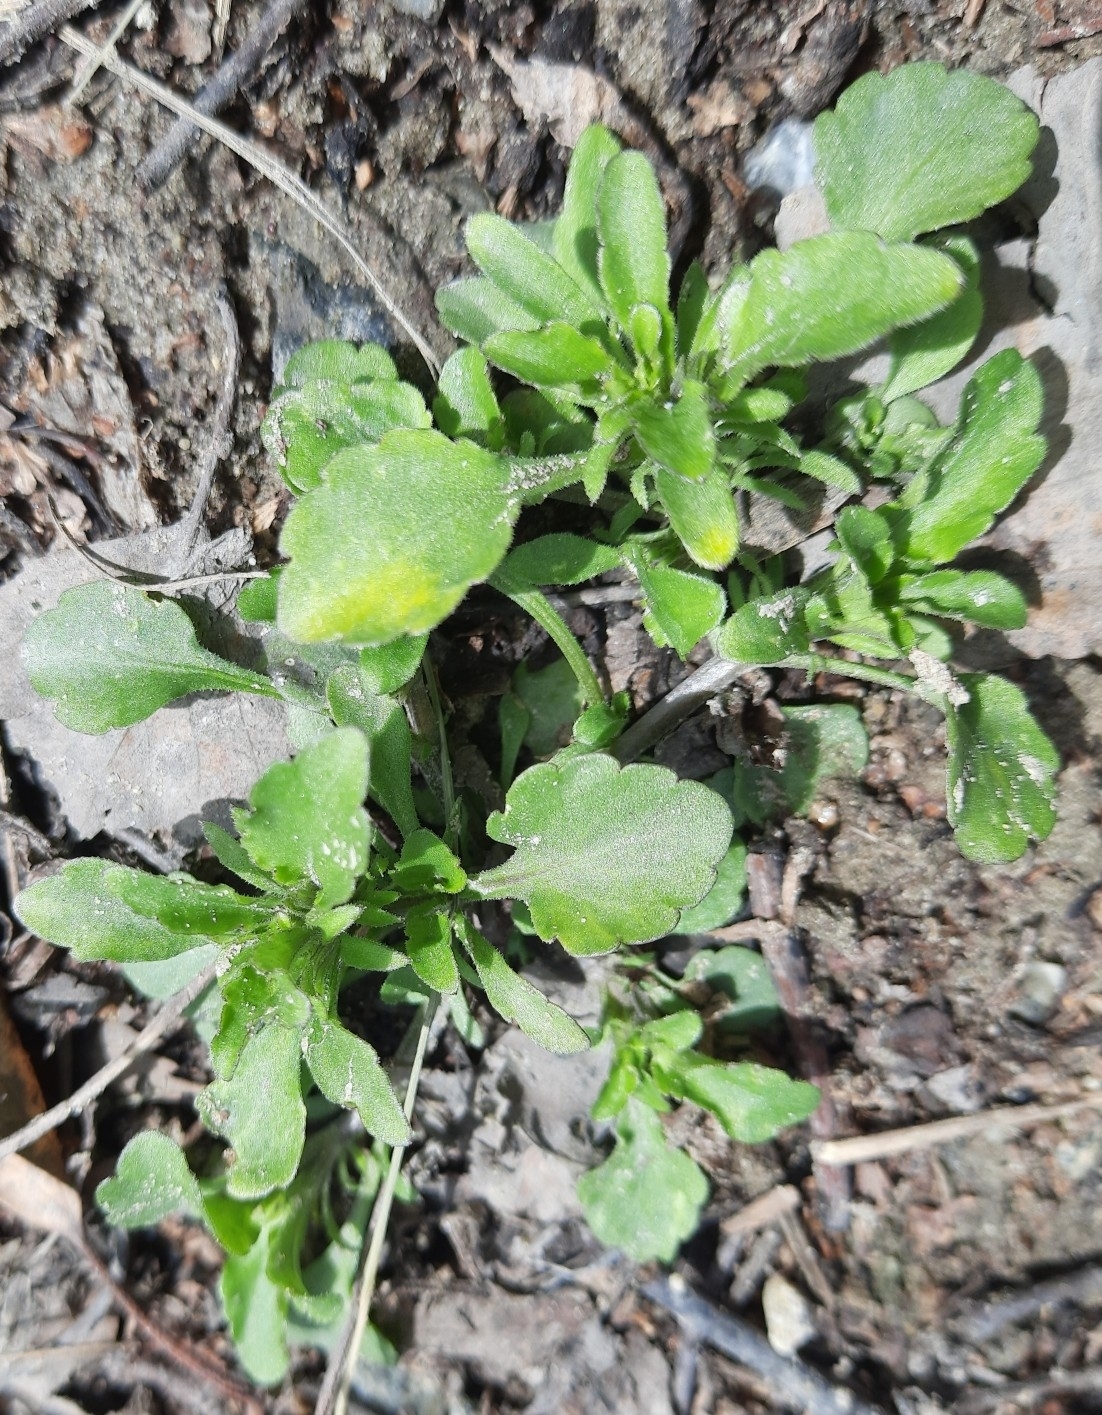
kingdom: Plantae
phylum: Tracheophyta
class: Magnoliopsida
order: Malpighiales
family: Violaceae
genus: Viola
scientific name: Viola arvensis
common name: Field pansy
